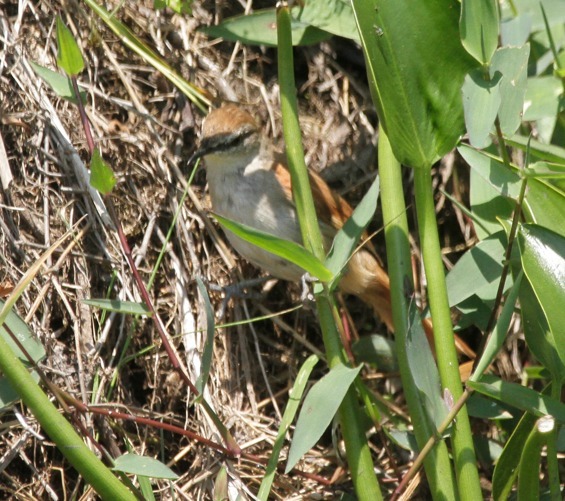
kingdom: Animalia
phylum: Chordata
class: Aves
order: Passeriformes
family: Furnariidae
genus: Certhiaxis
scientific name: Certhiaxis cinnamomeus
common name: Yellow-chinned spinetail
